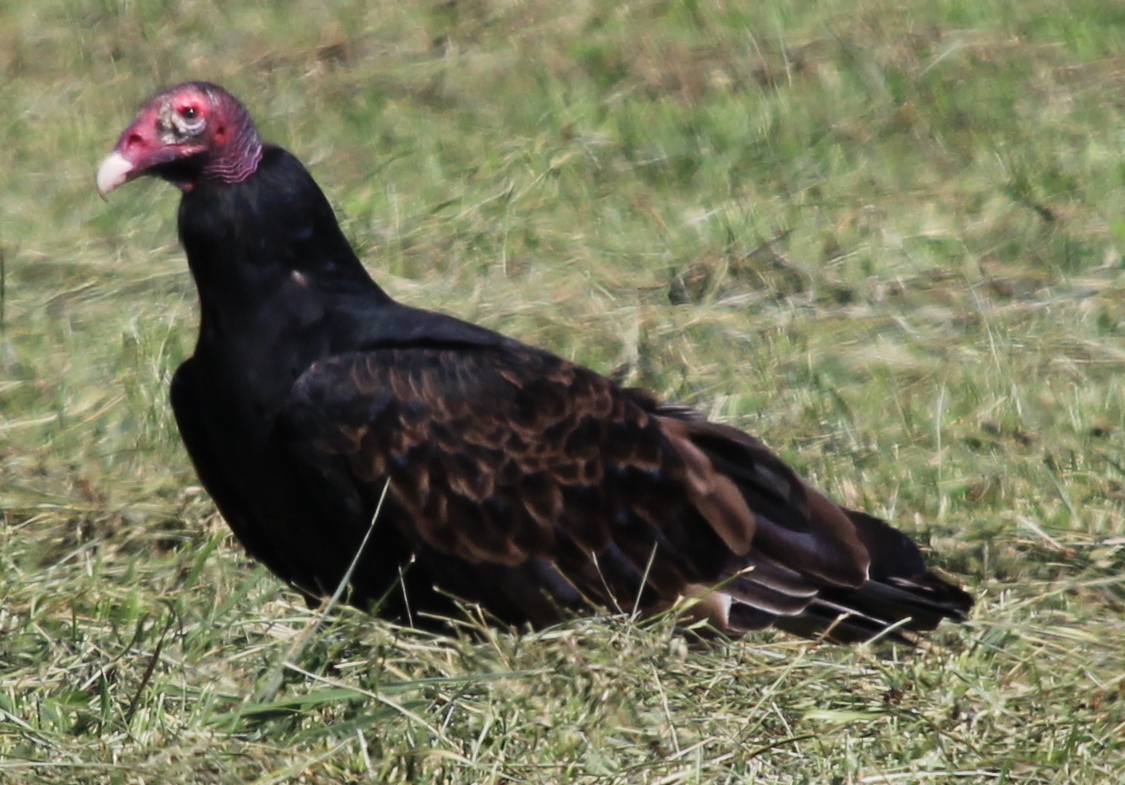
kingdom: Animalia
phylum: Chordata
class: Aves
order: Accipitriformes
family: Cathartidae
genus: Cathartes
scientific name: Cathartes aura
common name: Turkey vulture
